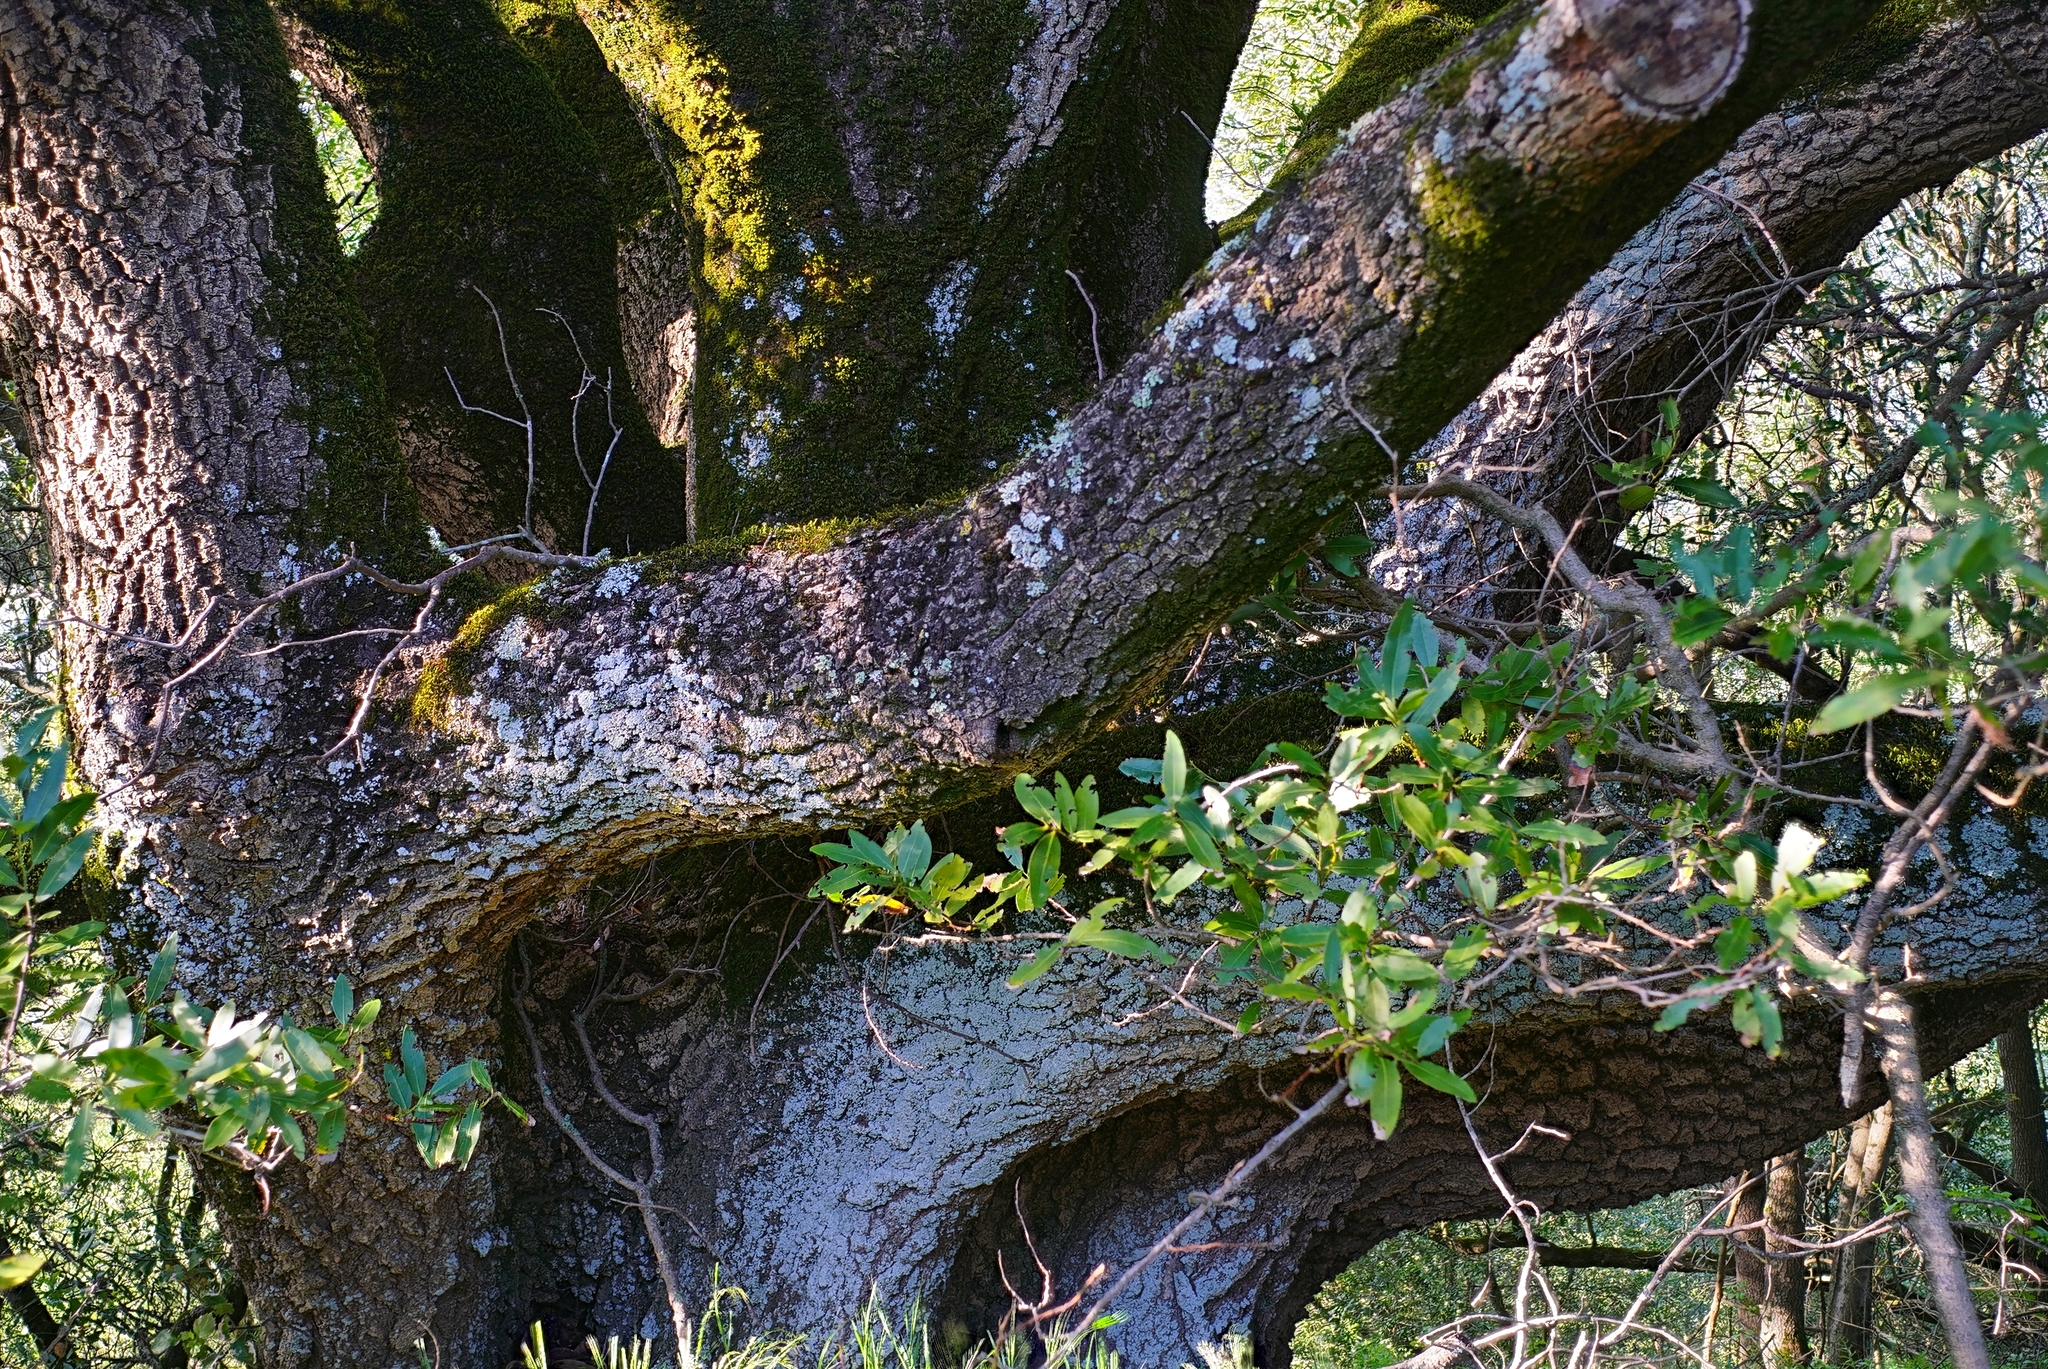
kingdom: Plantae
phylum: Tracheophyta
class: Magnoliopsida
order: Laurales
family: Lauraceae
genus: Umbellularia
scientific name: Umbellularia californica
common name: California bay
